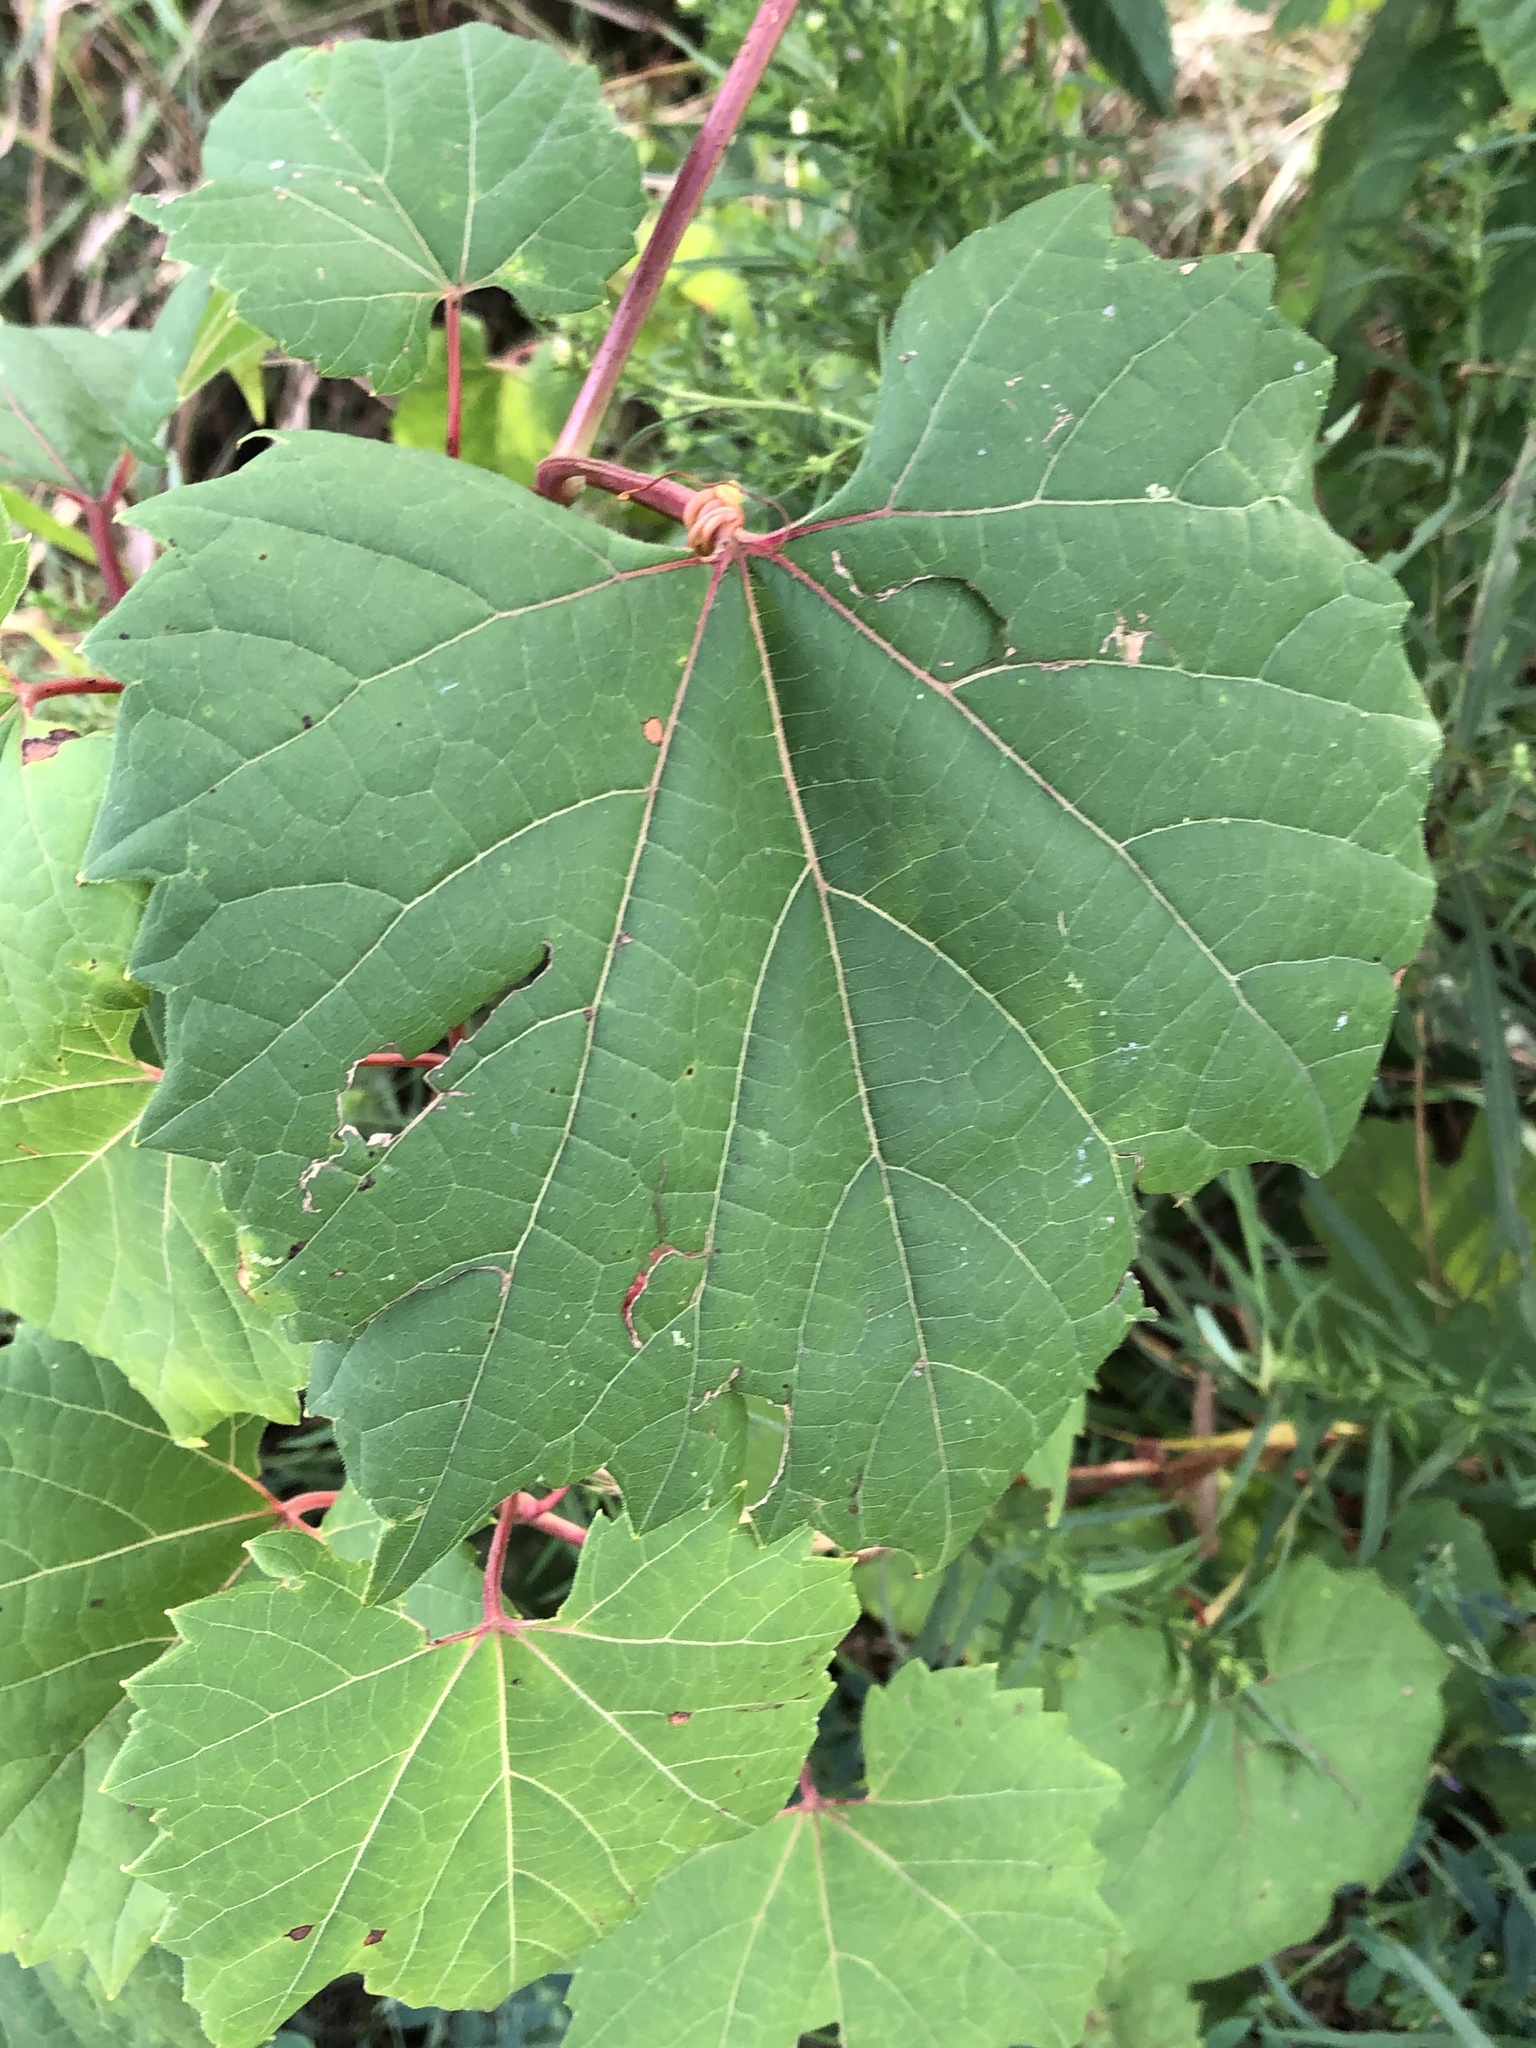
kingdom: Plantae
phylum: Tracheophyta
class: Magnoliopsida
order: Vitales
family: Vitaceae
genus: Vitis
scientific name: Vitis riparia
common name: Frost grape
